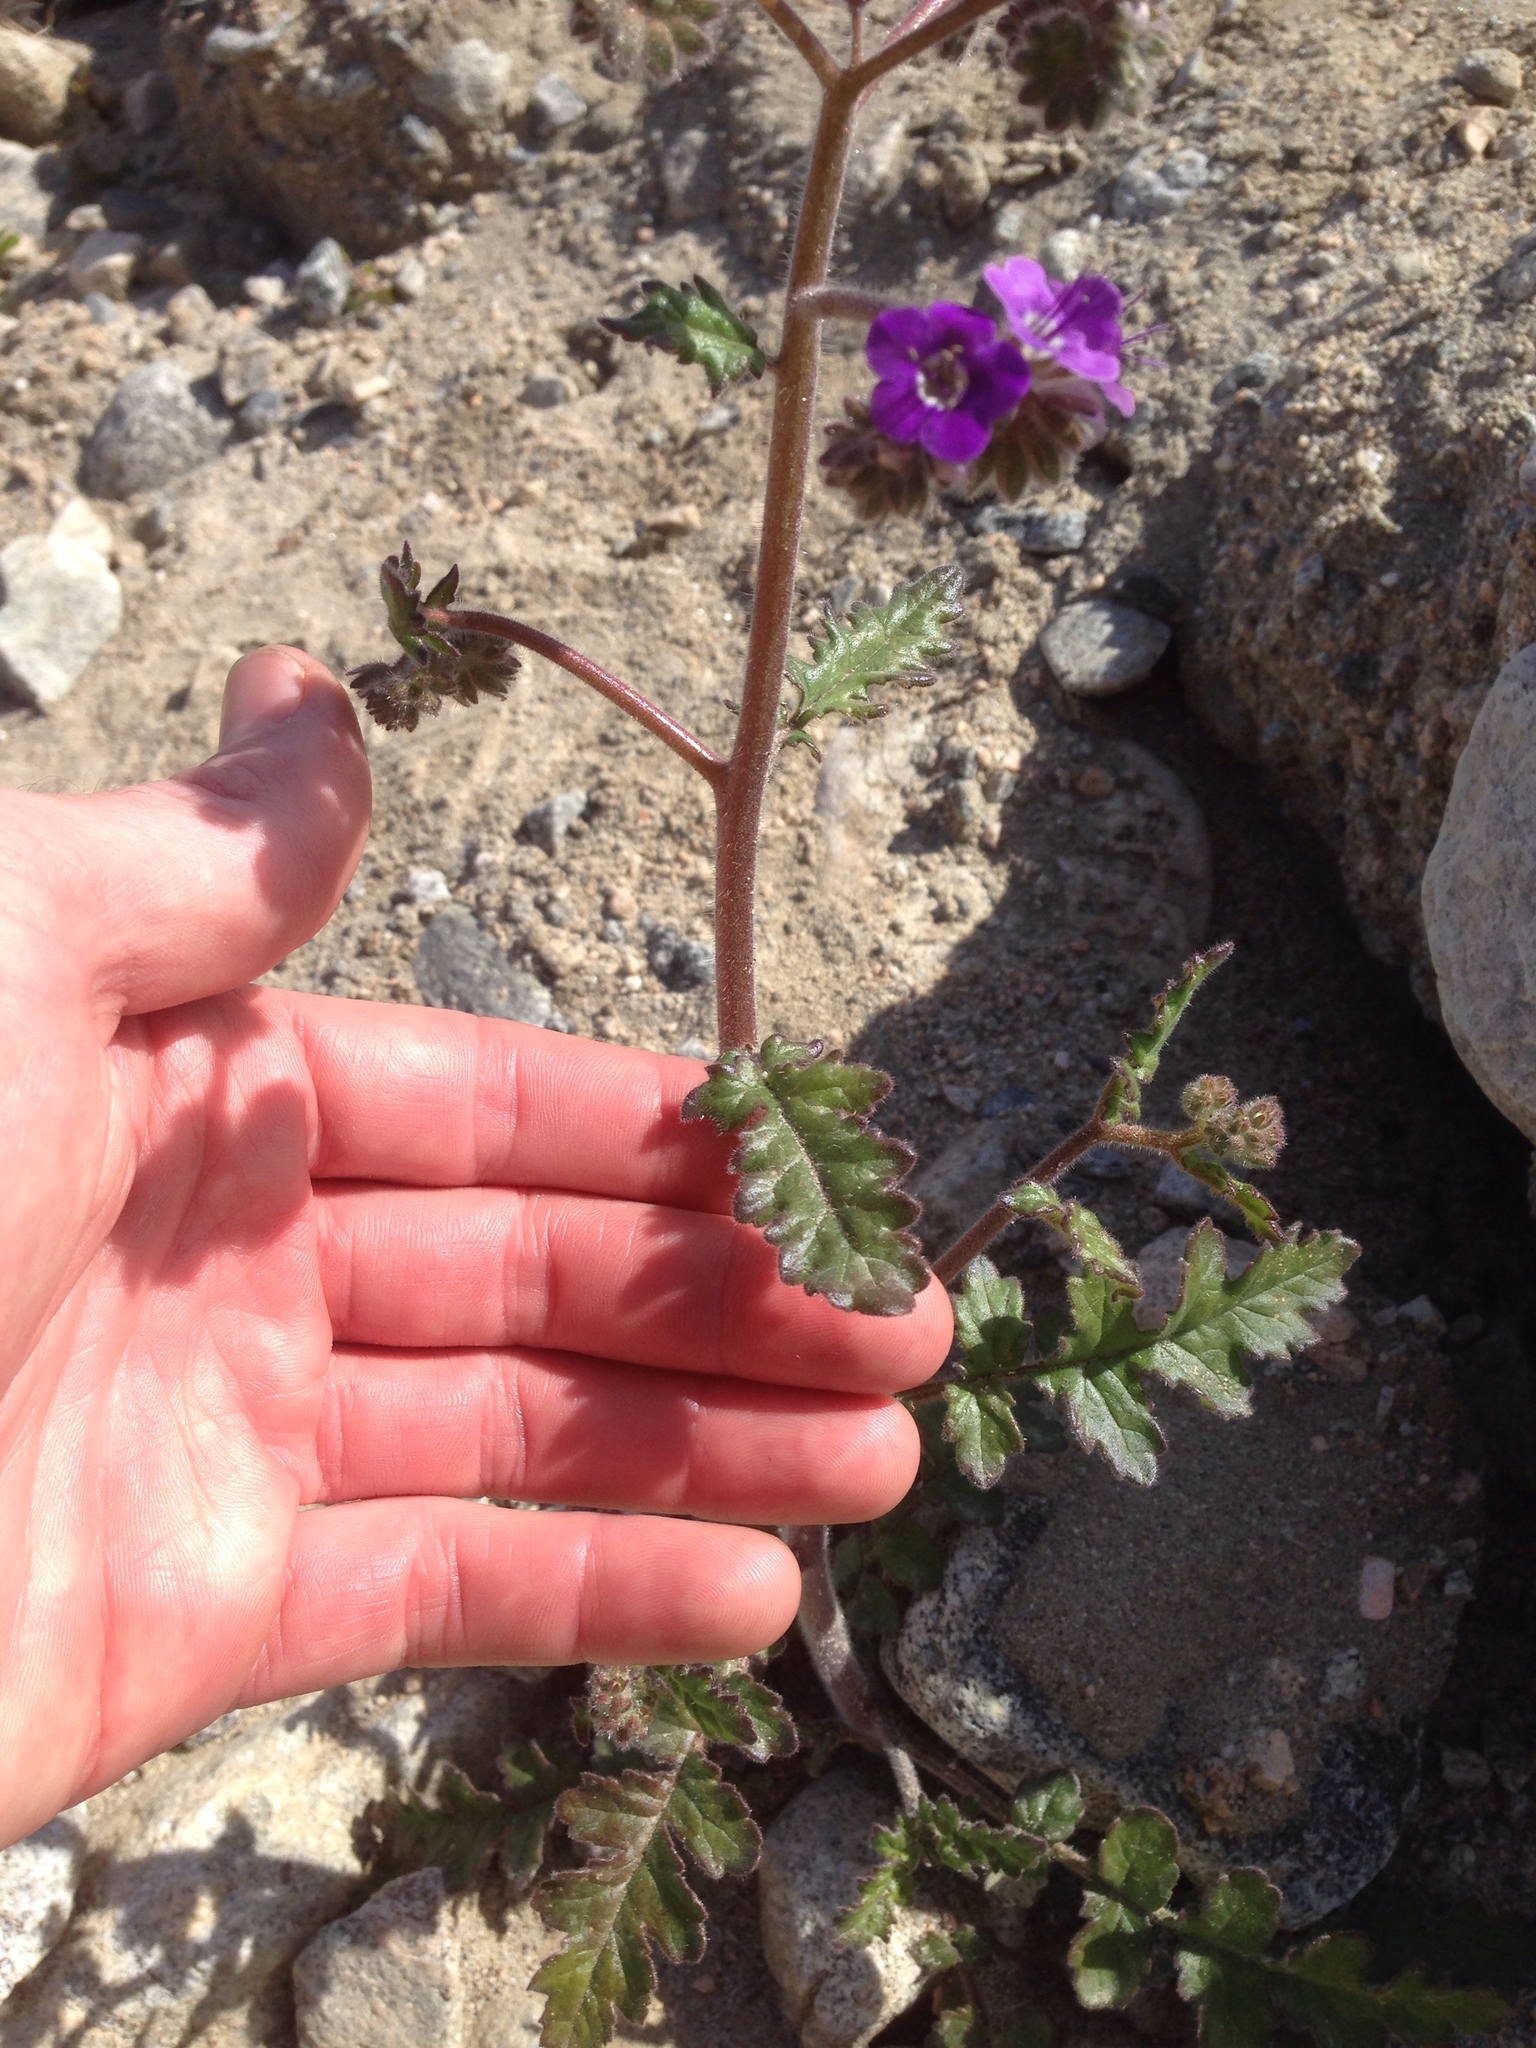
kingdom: Plantae
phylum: Tracheophyta
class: Magnoliopsida
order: Boraginales
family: Hydrophyllaceae
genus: Phacelia
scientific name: Phacelia crenulata
